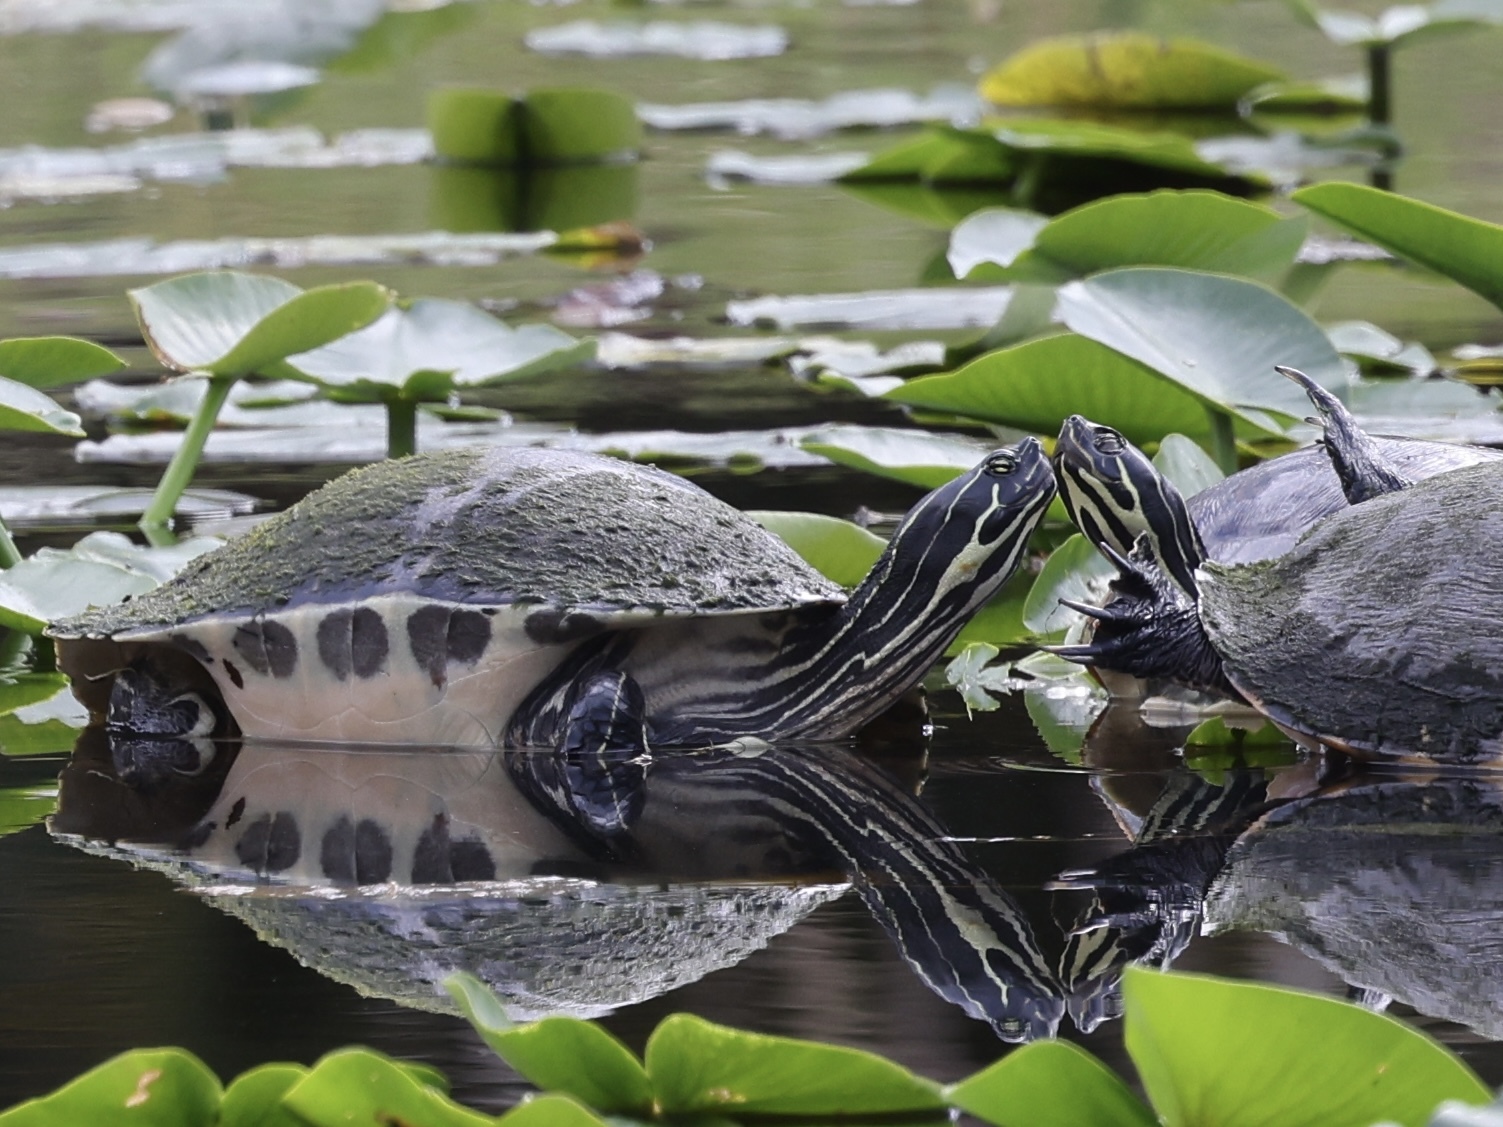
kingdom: Animalia
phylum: Chordata
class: Testudines
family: Emydidae
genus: Pseudemys
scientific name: Pseudemys peninsularis
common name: Peninsula cooter
